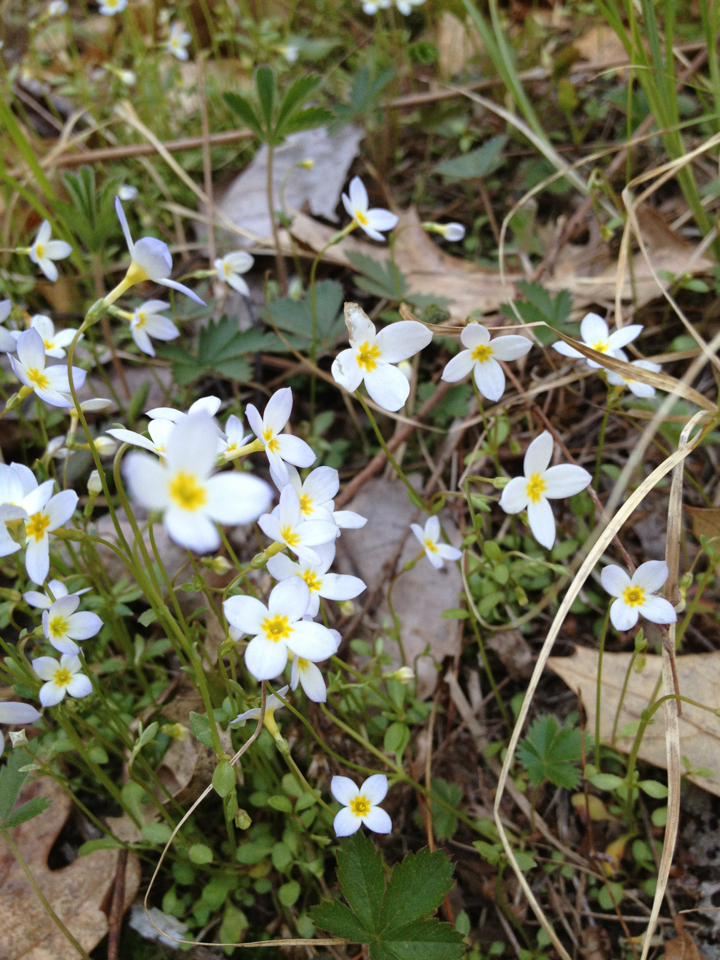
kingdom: Plantae
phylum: Tracheophyta
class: Magnoliopsida
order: Gentianales
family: Rubiaceae
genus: Houstonia
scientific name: Houstonia caerulea
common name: Bluets
